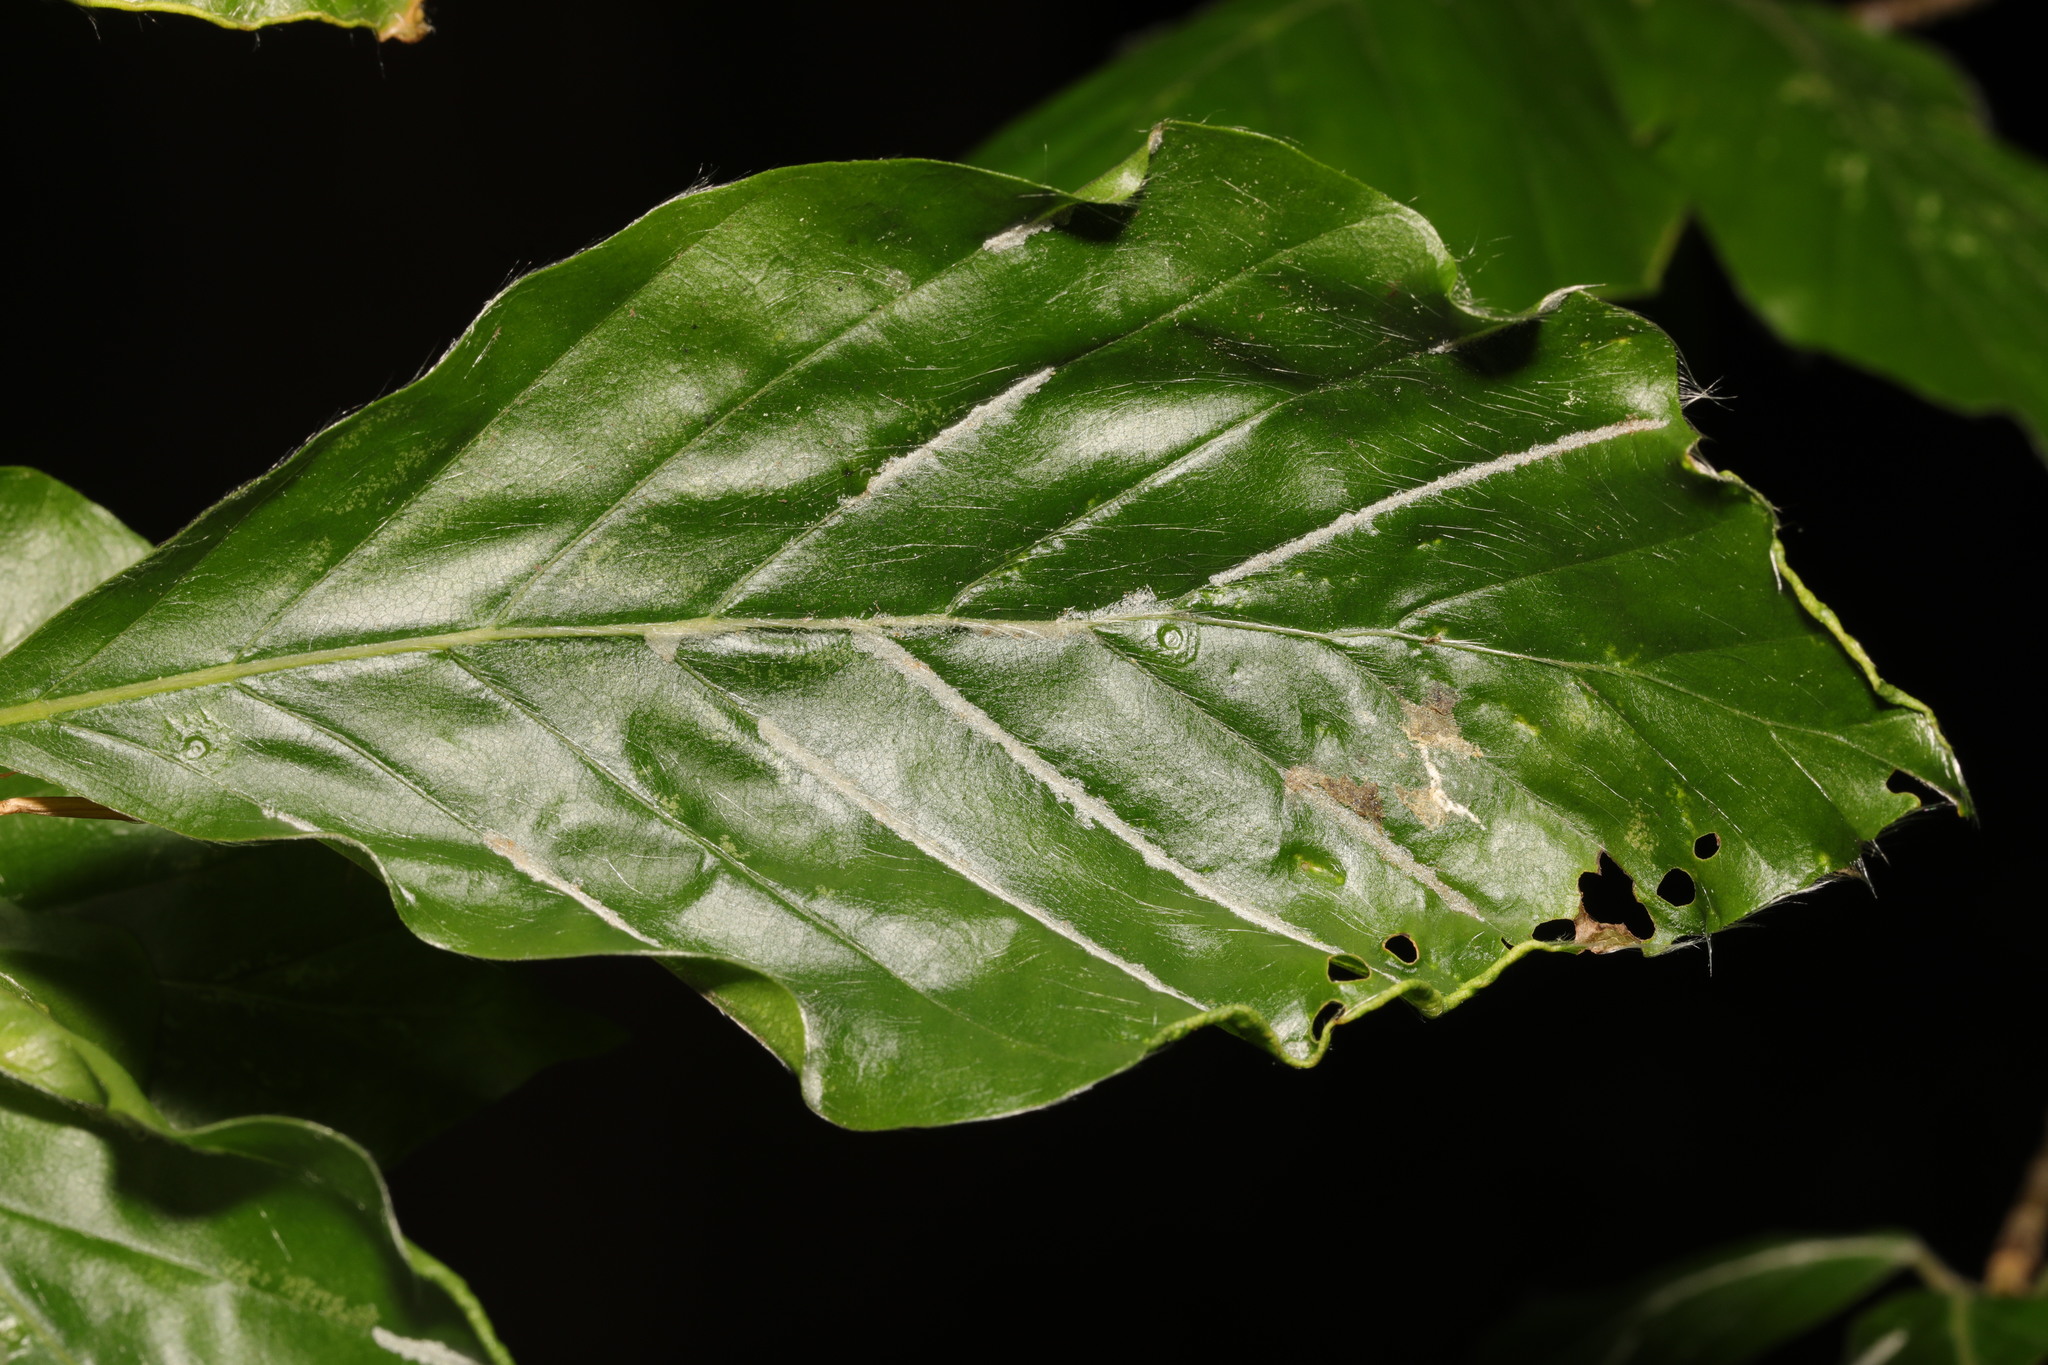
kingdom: Animalia
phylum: Arthropoda
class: Arachnida
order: Trombidiformes
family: Eriophyidae
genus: Aceria
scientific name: Aceria nervisequa
